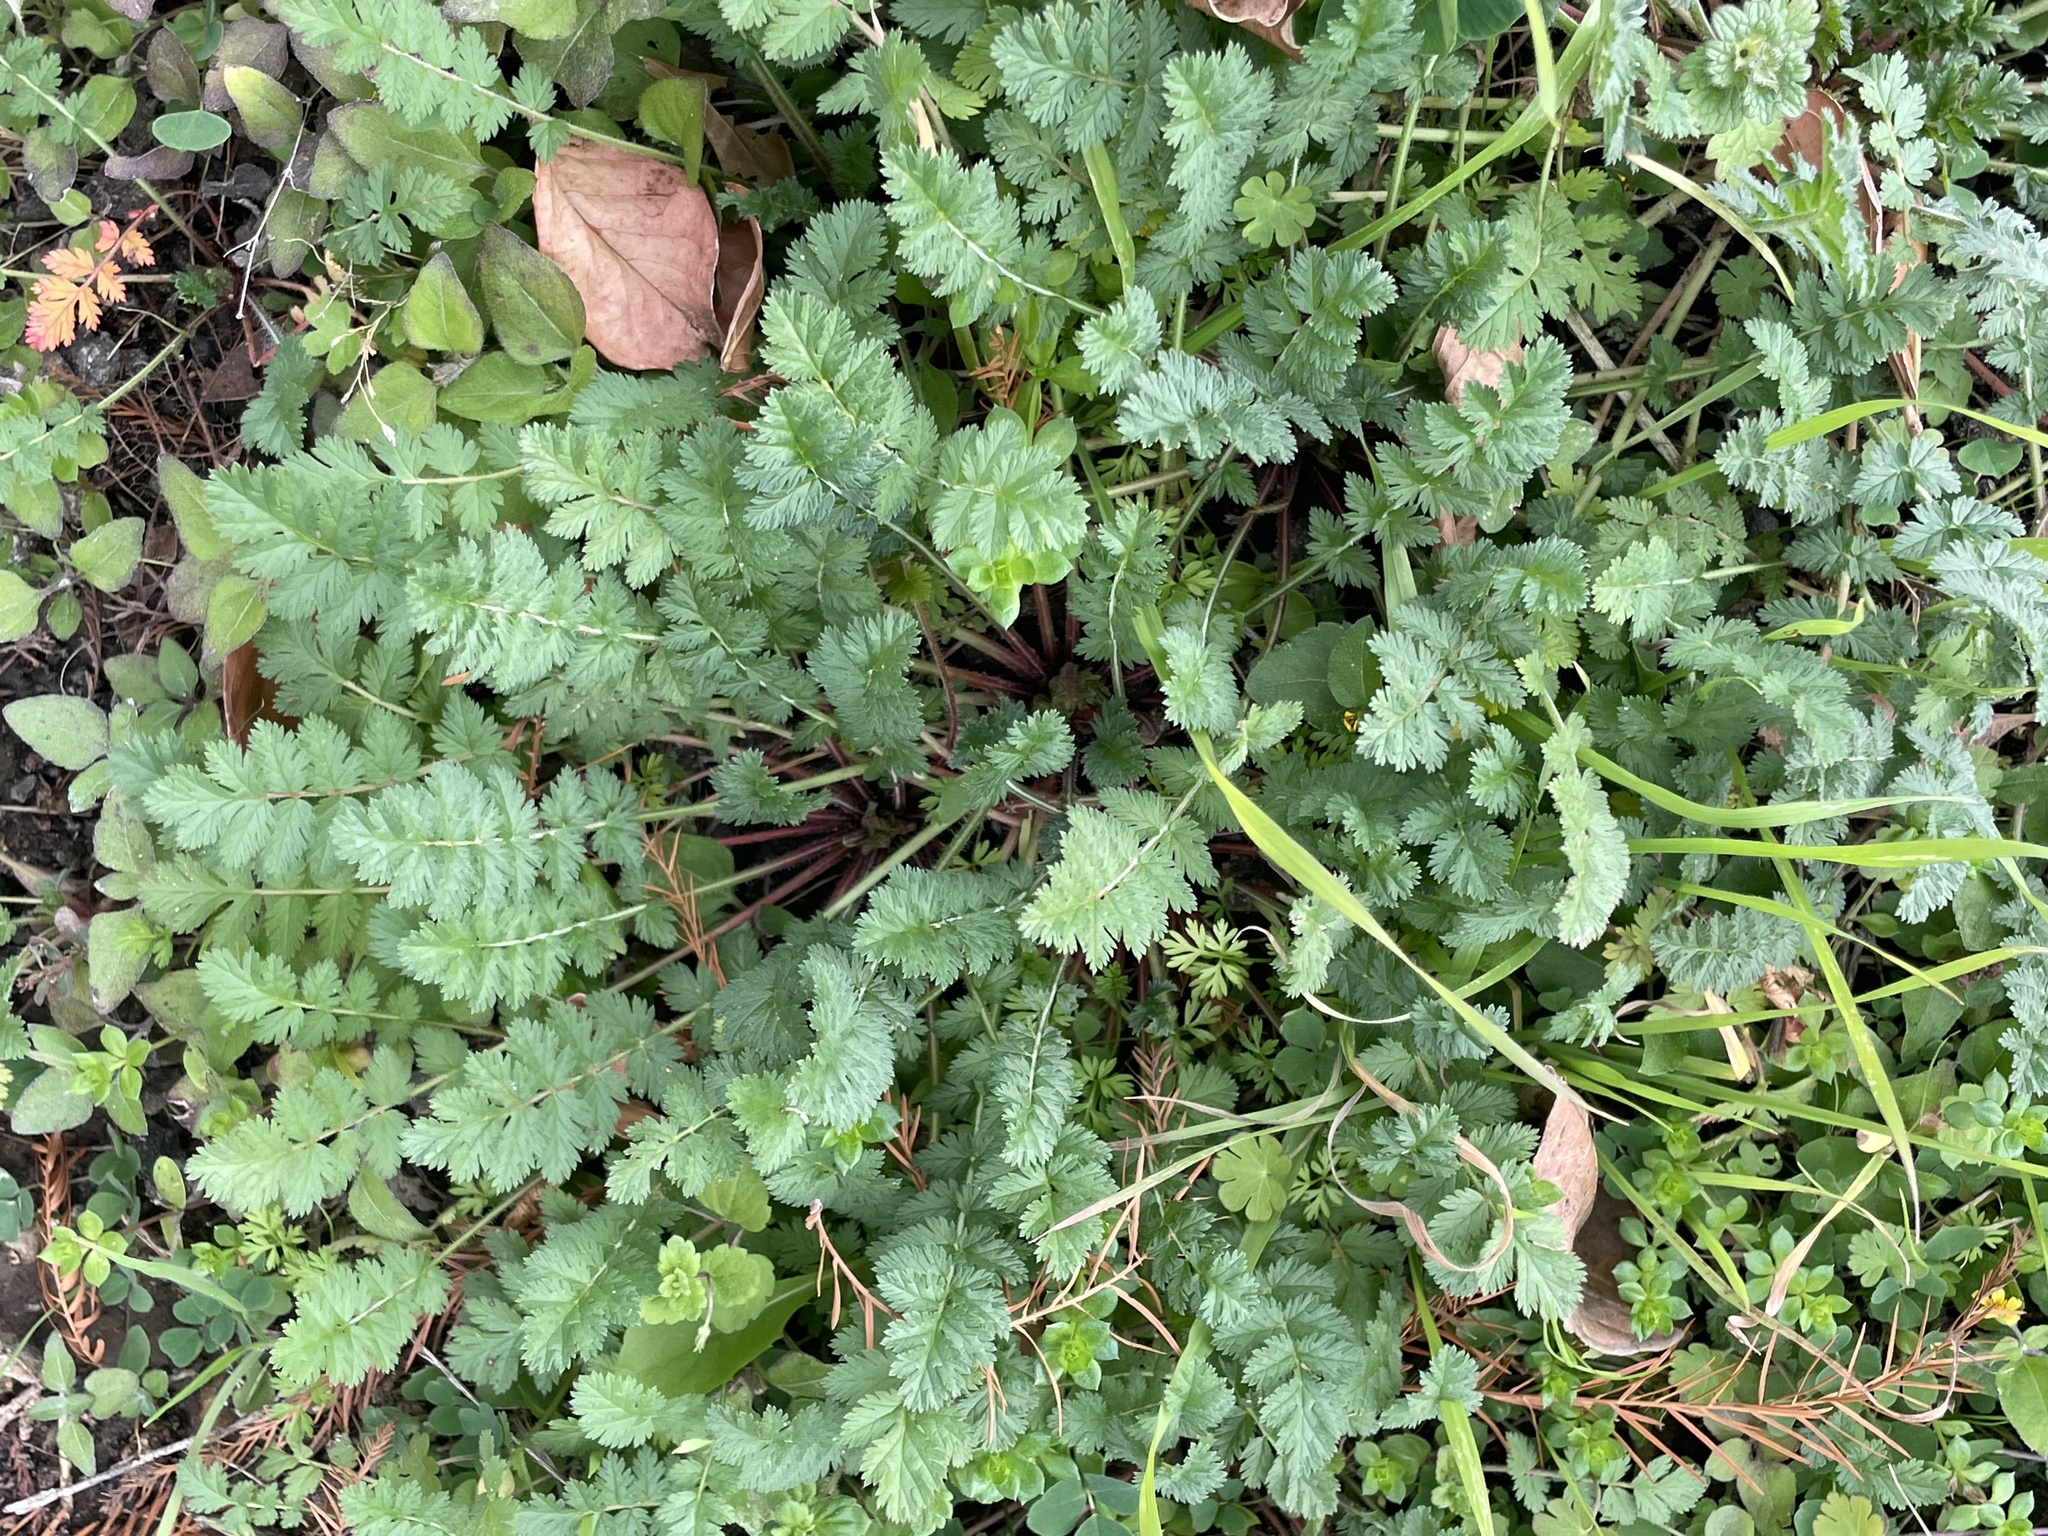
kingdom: Plantae
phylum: Tracheophyta
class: Magnoliopsida
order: Geraniales
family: Geraniaceae
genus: Erodium
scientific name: Erodium cicutarium
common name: Common stork's-bill
